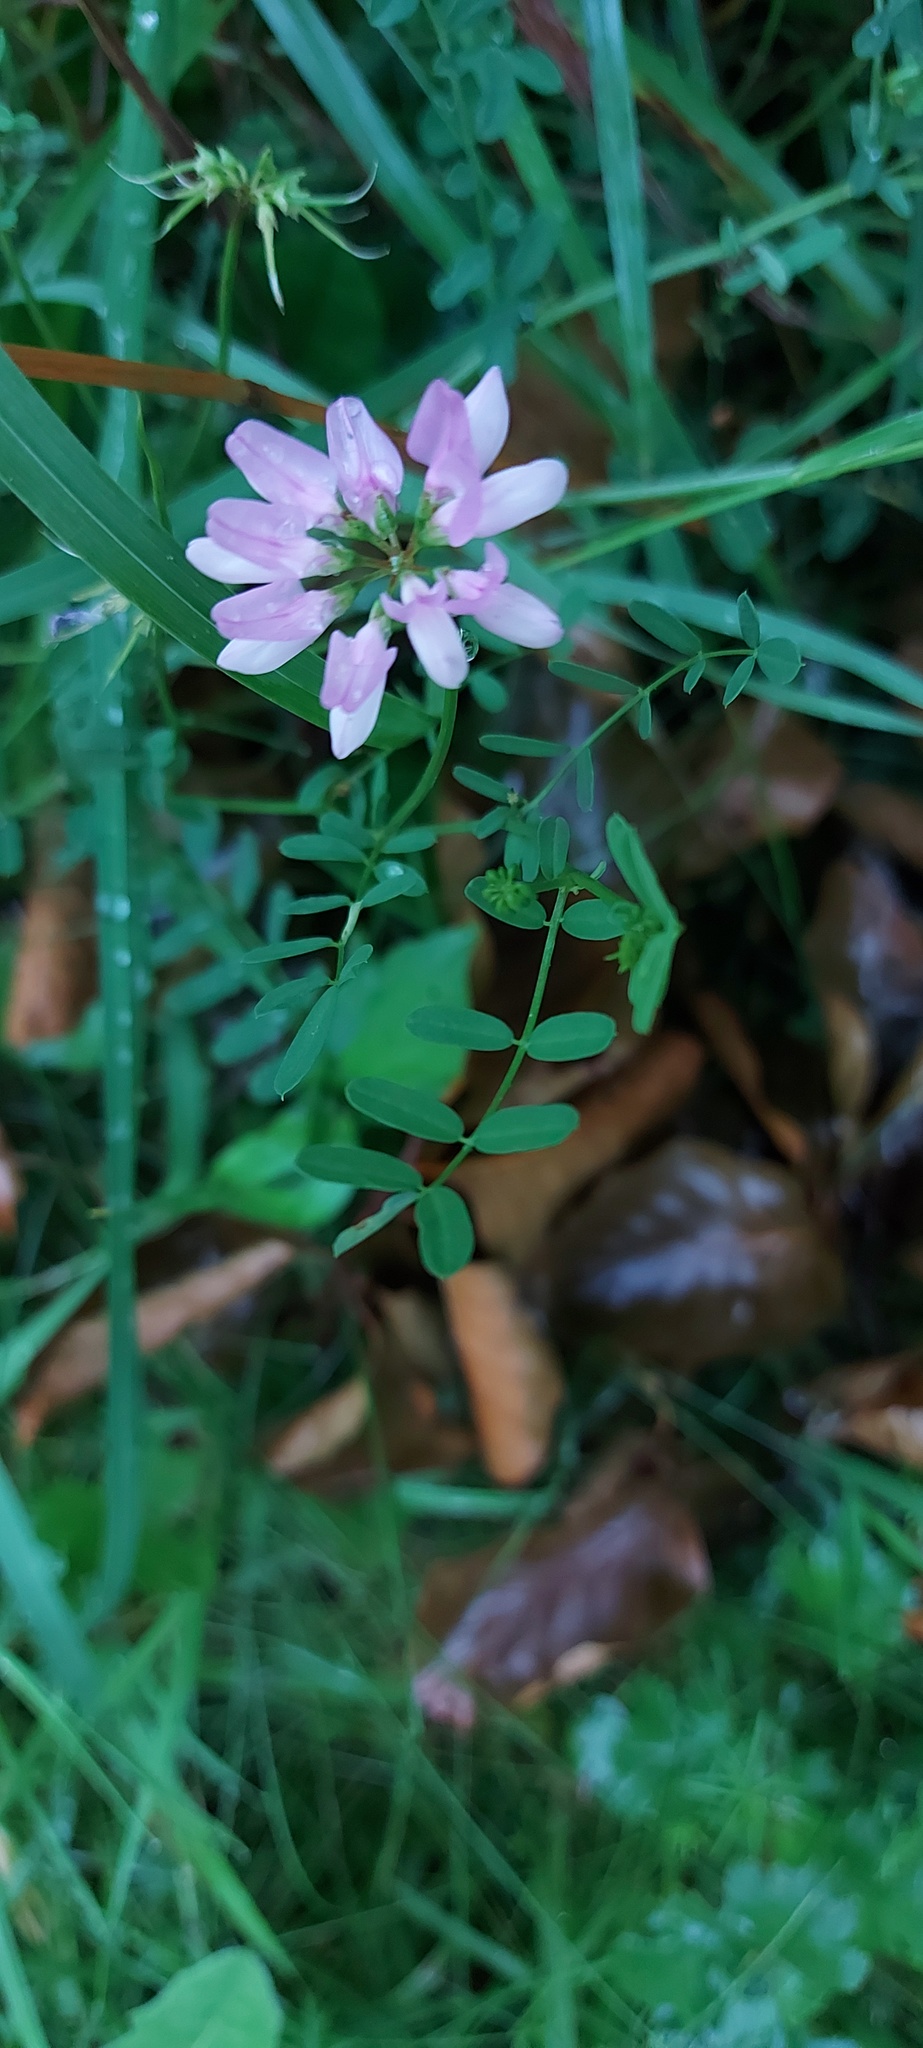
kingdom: Plantae
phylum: Tracheophyta
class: Magnoliopsida
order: Fabales
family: Fabaceae
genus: Coronilla
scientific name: Coronilla varia
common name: Crownvetch
